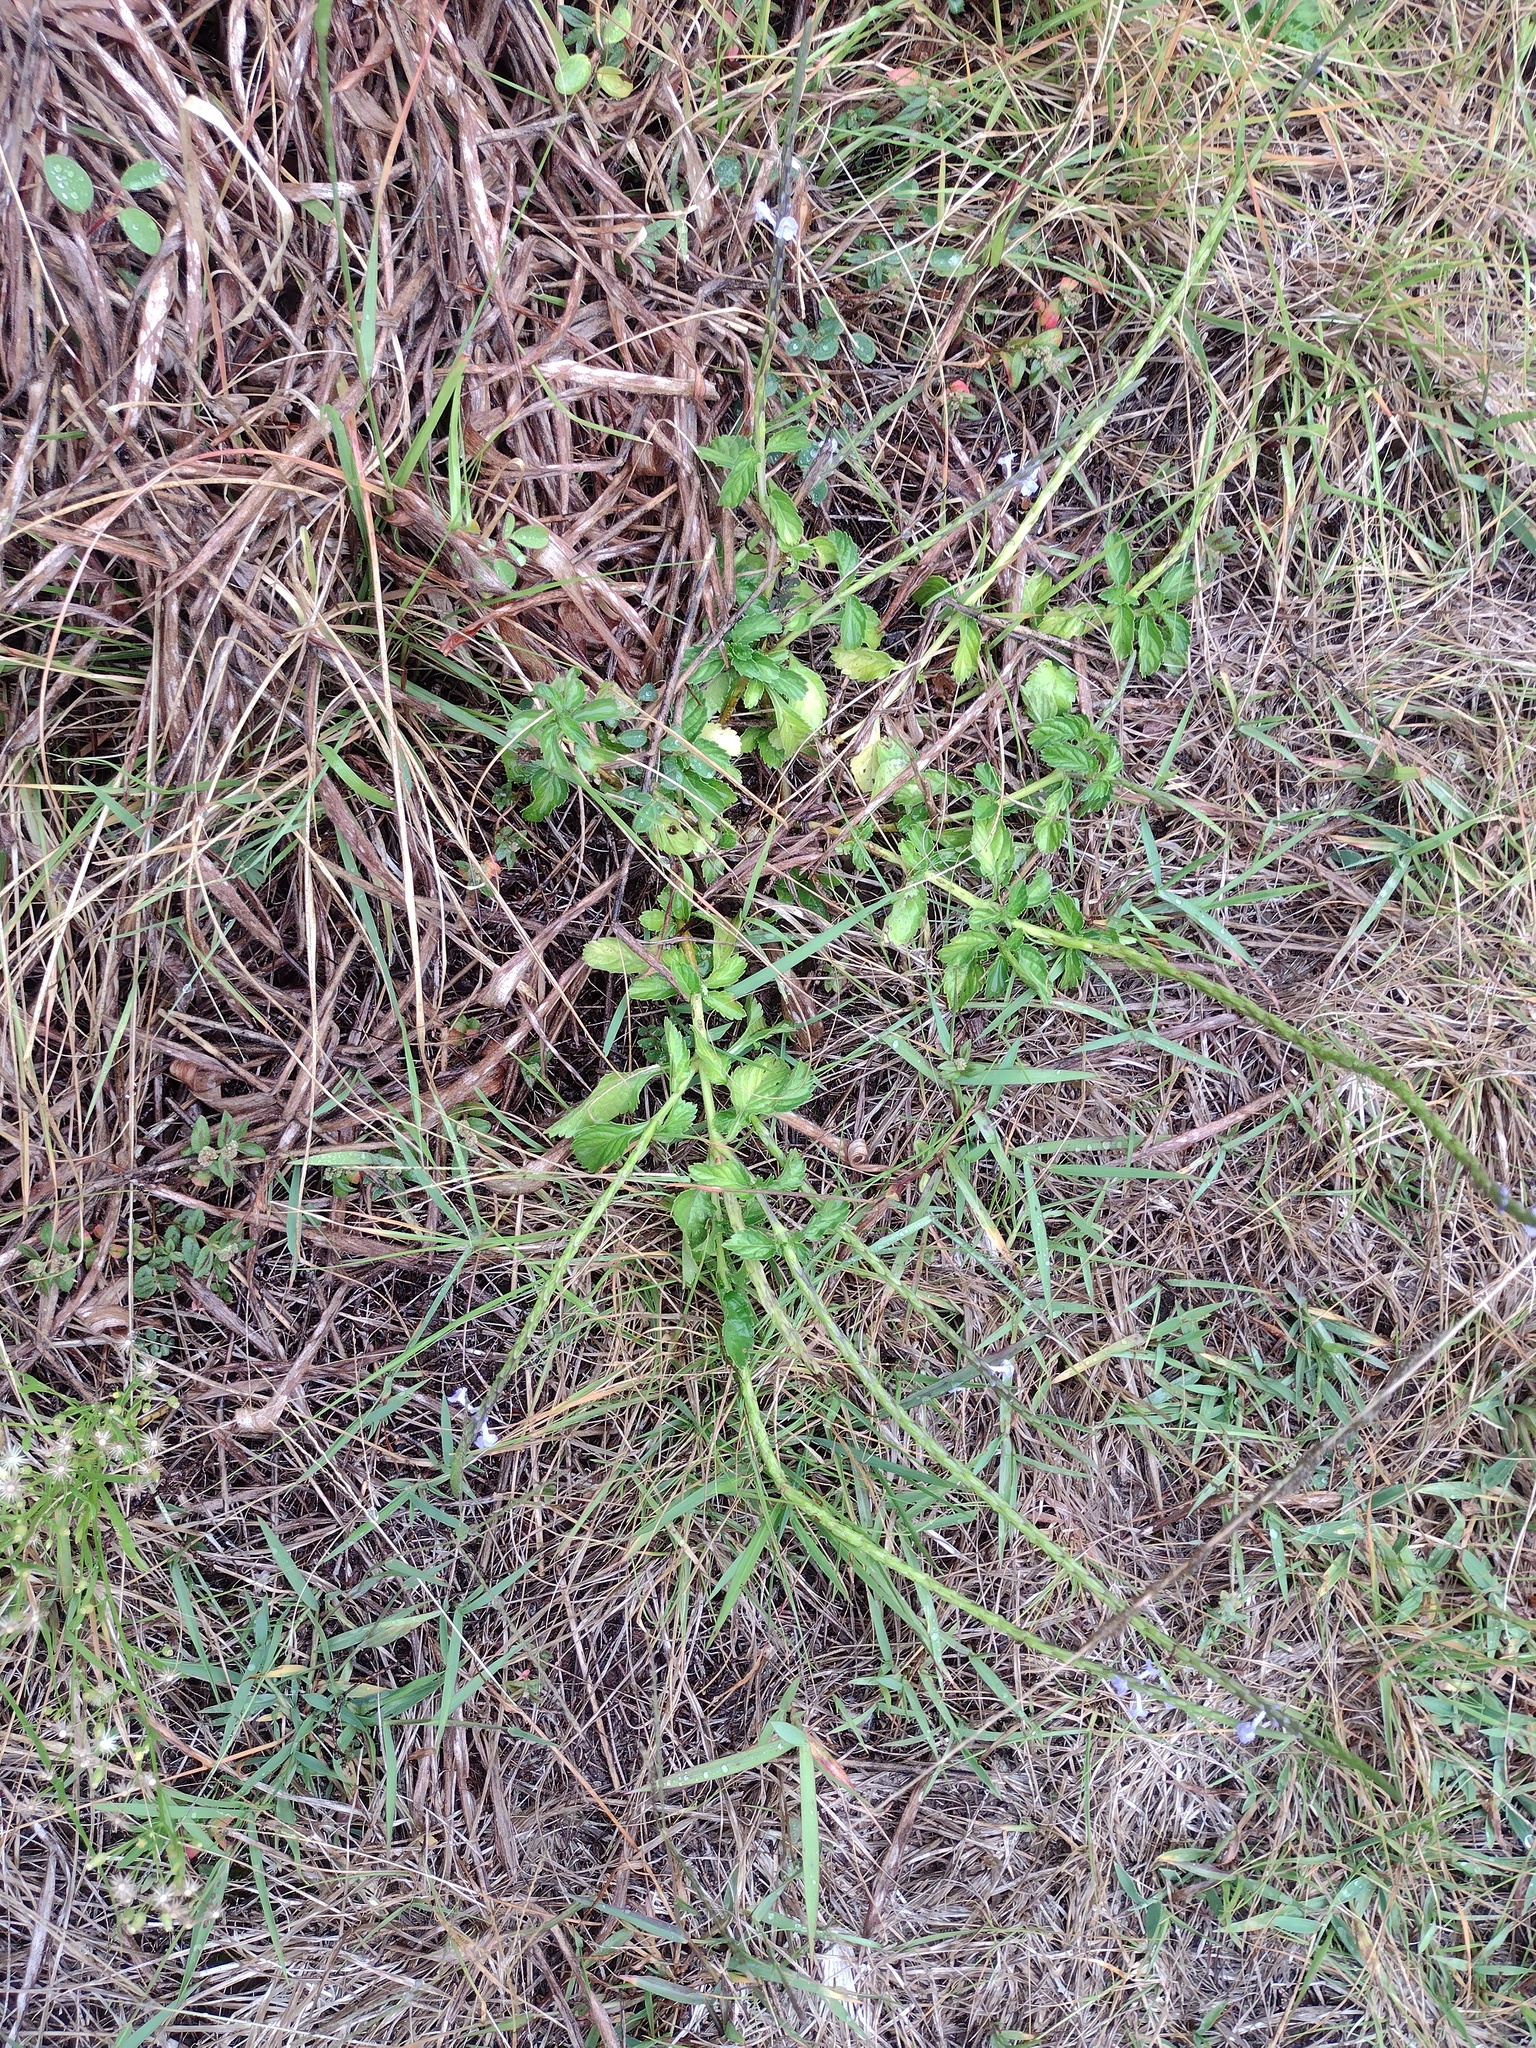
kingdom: Plantae
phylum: Tracheophyta
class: Magnoliopsida
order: Lamiales
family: Verbenaceae
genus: Stachytarpheta
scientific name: Stachytarpheta jamaicensis
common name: Light-blue snakeweed
